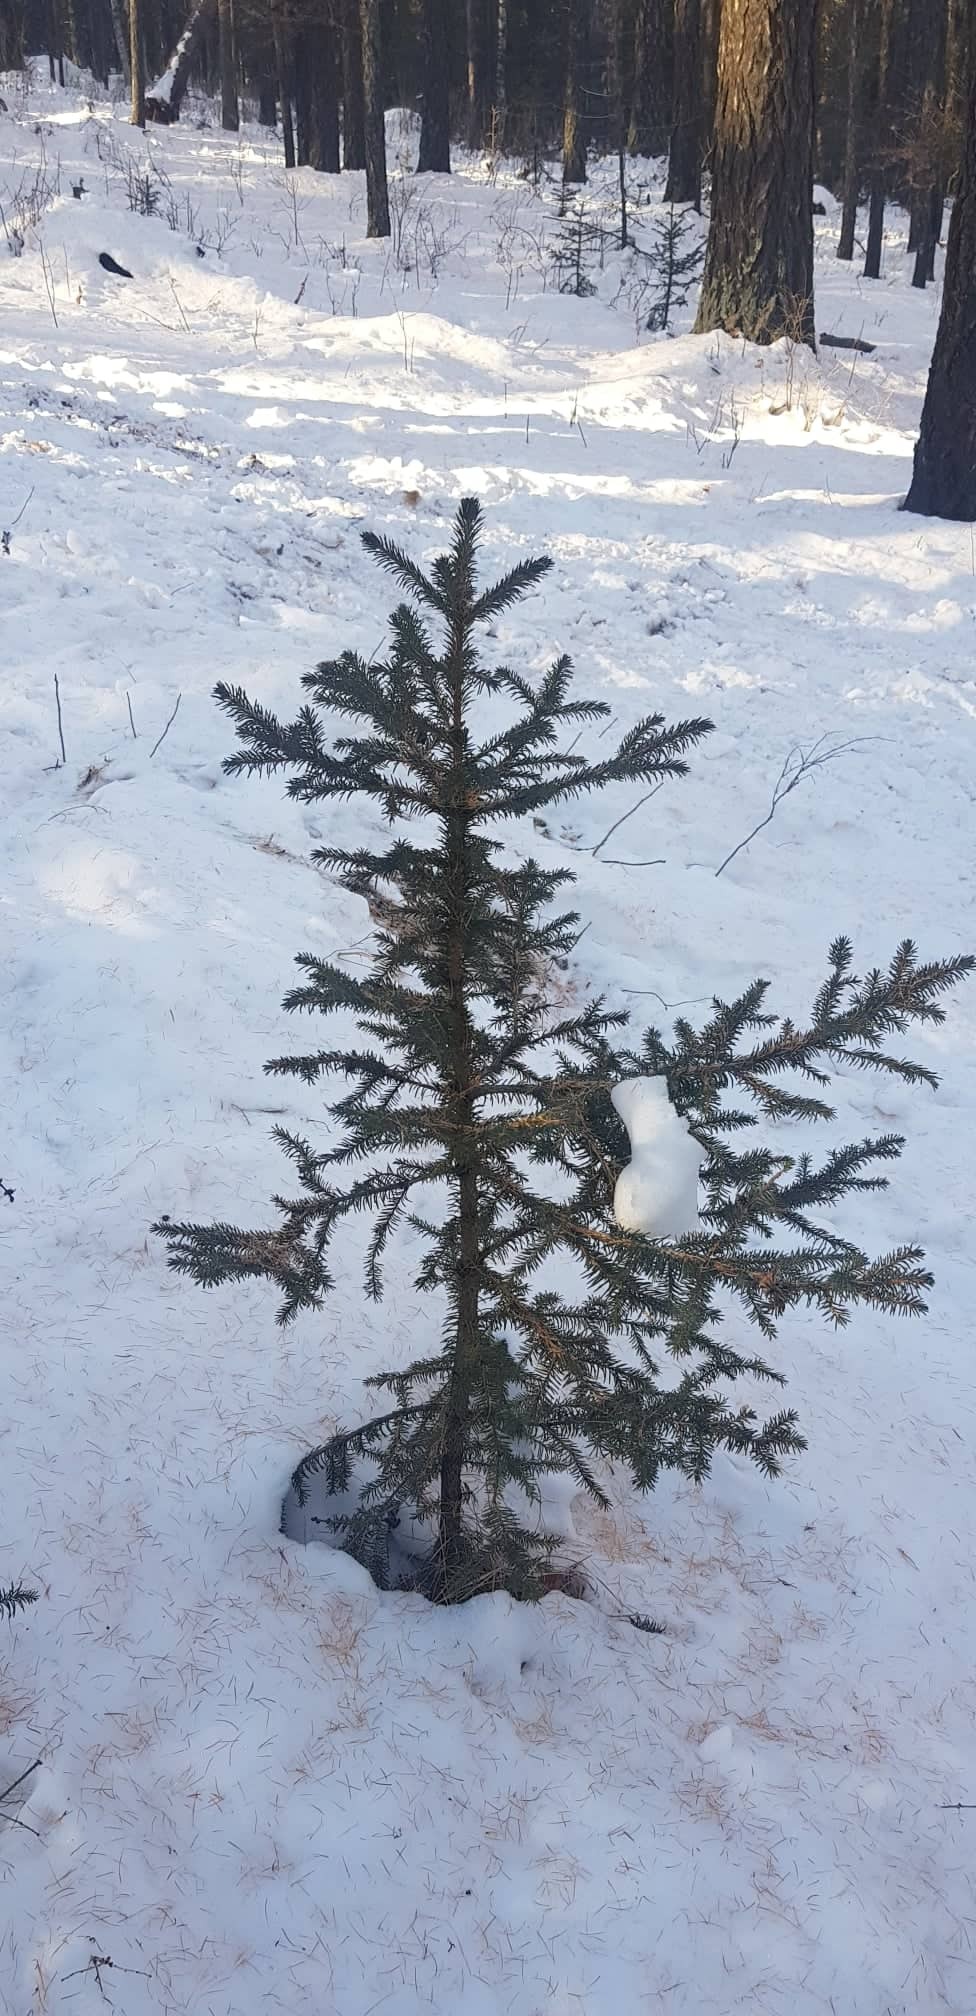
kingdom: Plantae
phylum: Tracheophyta
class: Pinopsida
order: Pinales
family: Pinaceae
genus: Picea
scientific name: Picea obovata
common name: Siberian spruce
